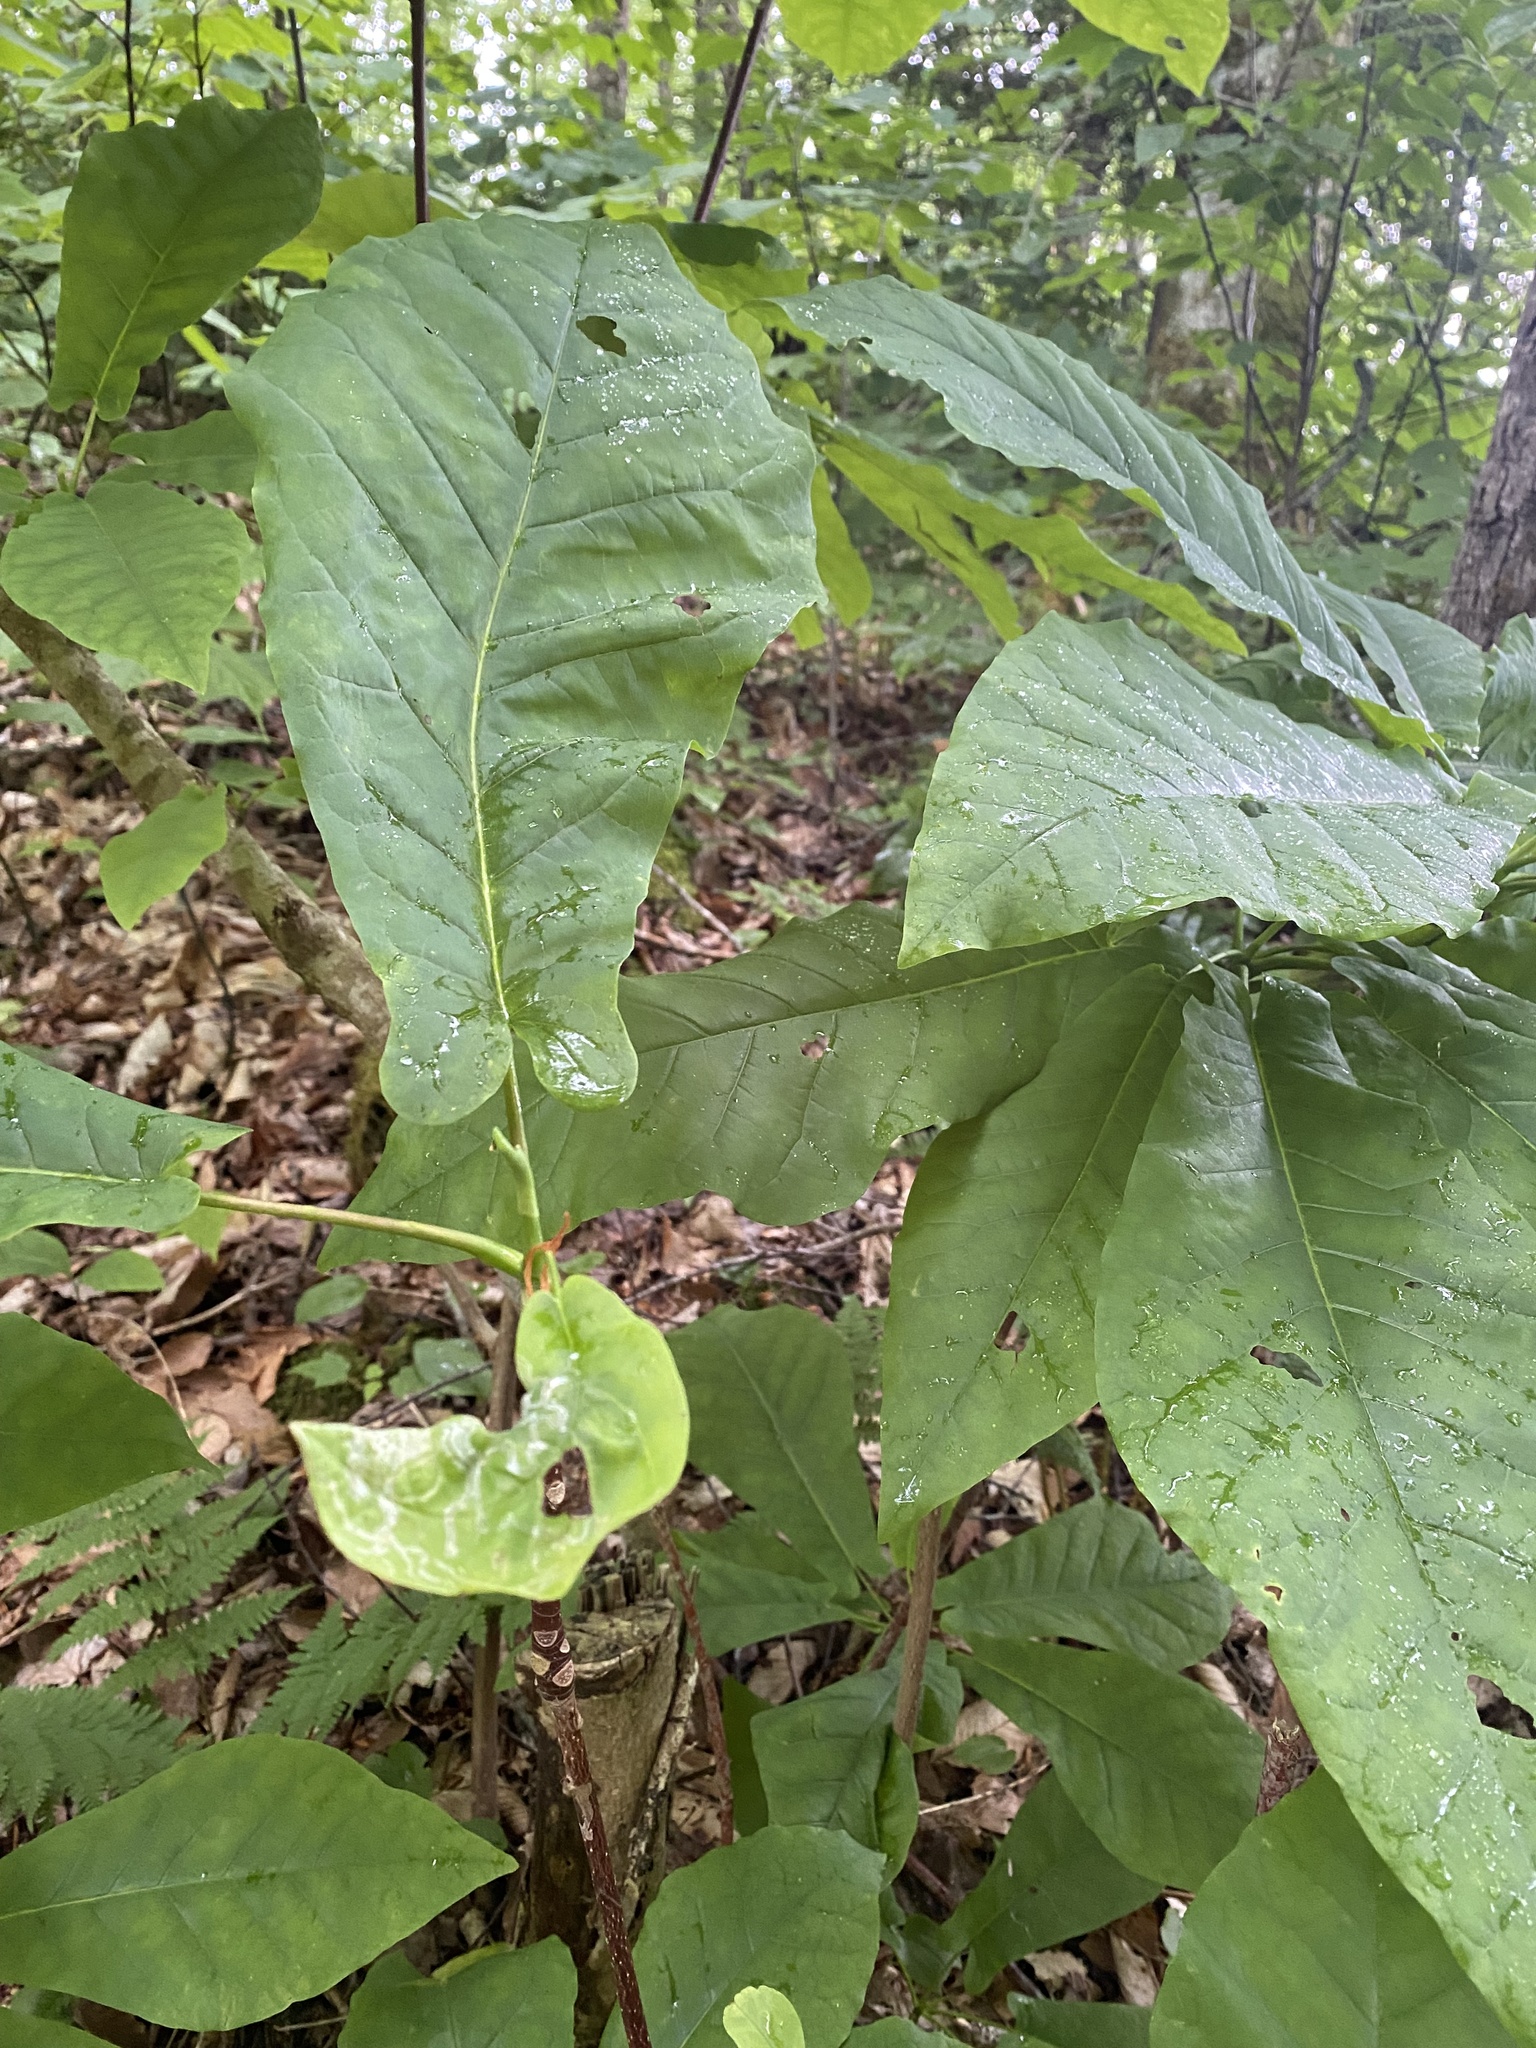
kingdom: Plantae
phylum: Tracheophyta
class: Magnoliopsida
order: Magnoliales
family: Magnoliaceae
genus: Magnolia
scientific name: Magnolia fraseri
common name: Fraser's magnolia
